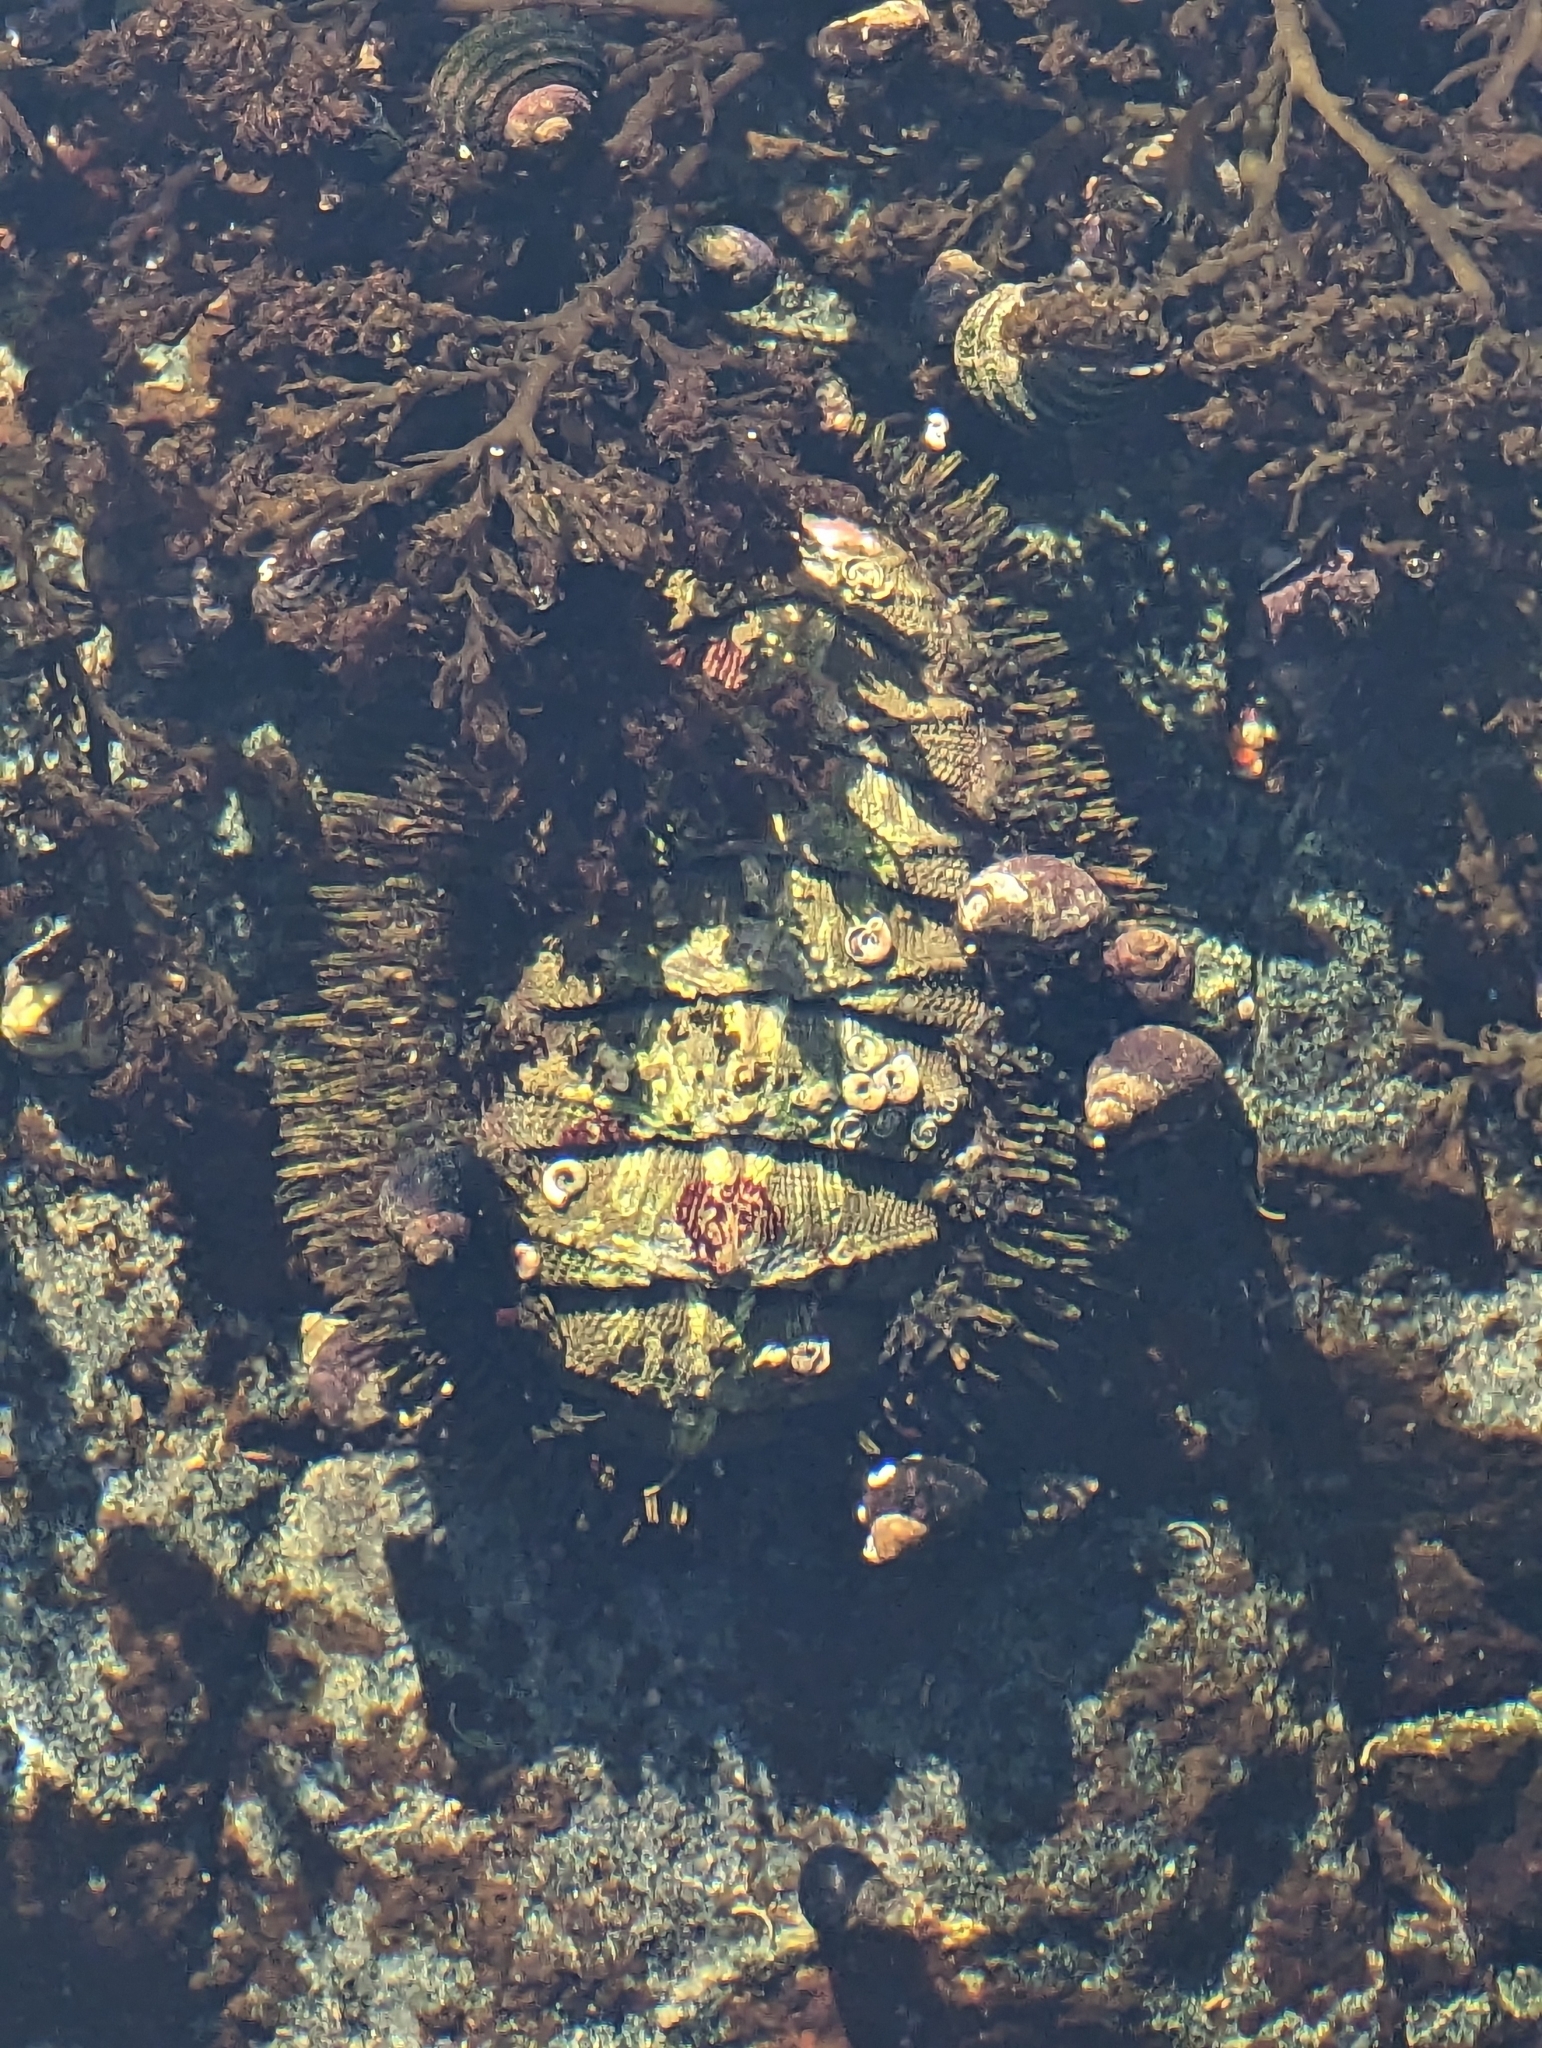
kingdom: Animalia
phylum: Mollusca
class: Polyplacophora
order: Chitonida
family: Mopaliidae
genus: Mopalia
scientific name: Mopalia muscosa
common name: Mossy chiton
